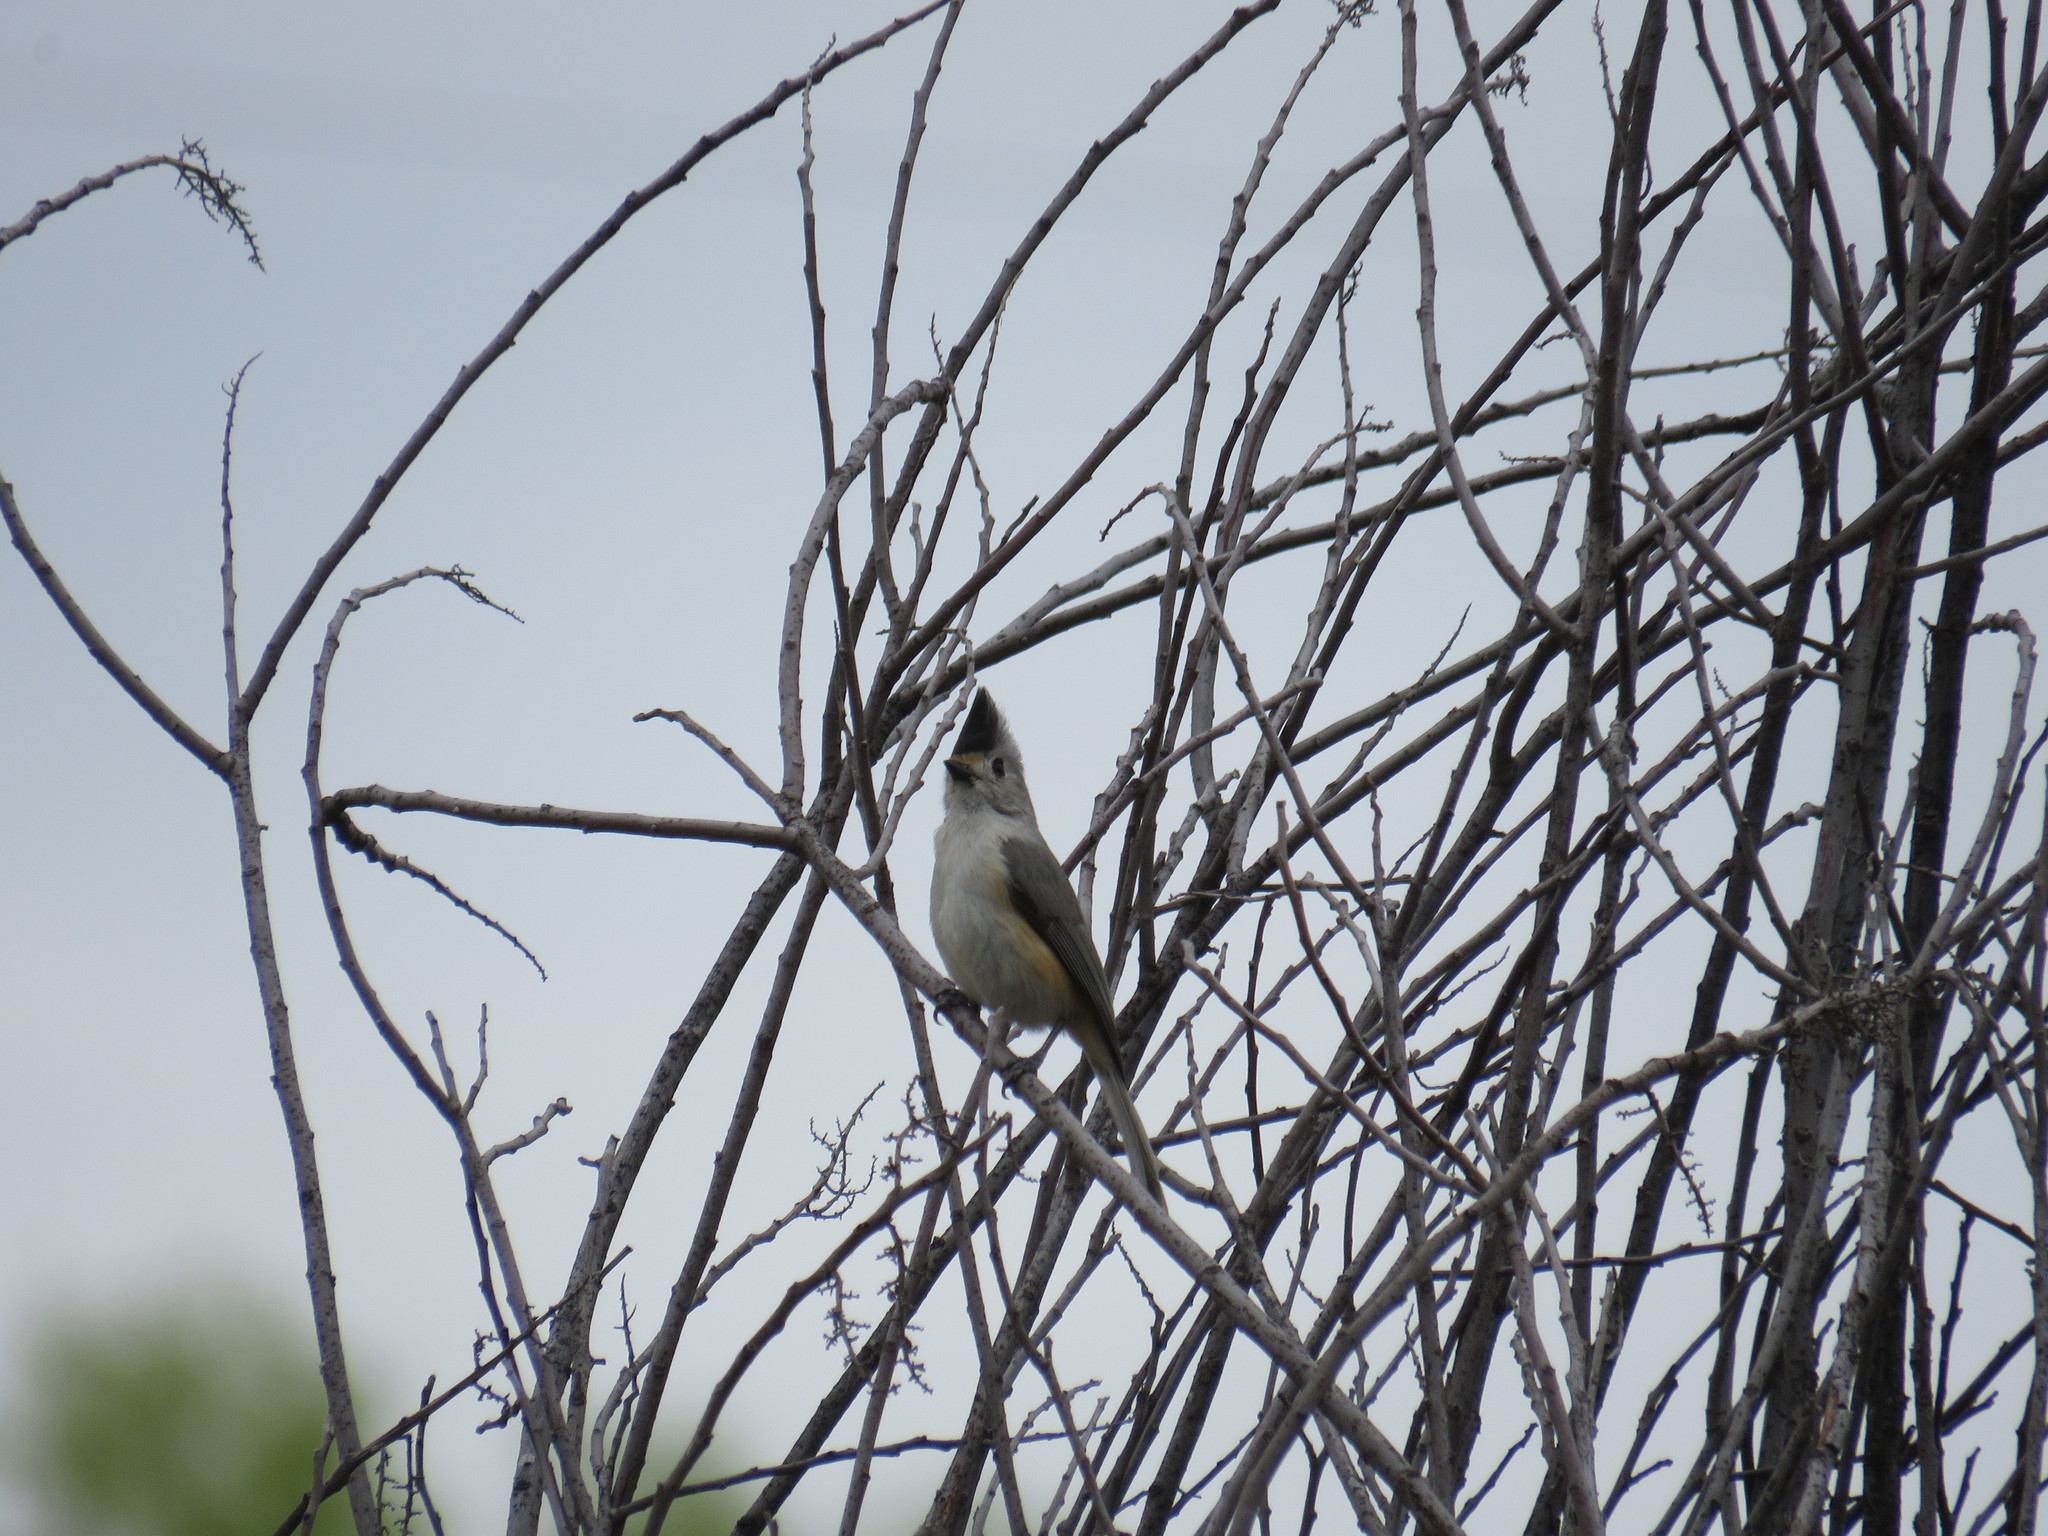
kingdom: Animalia
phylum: Chordata
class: Aves
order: Passeriformes
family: Paridae
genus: Baeolophus
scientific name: Baeolophus atricristatus
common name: Black-crested titmouse
